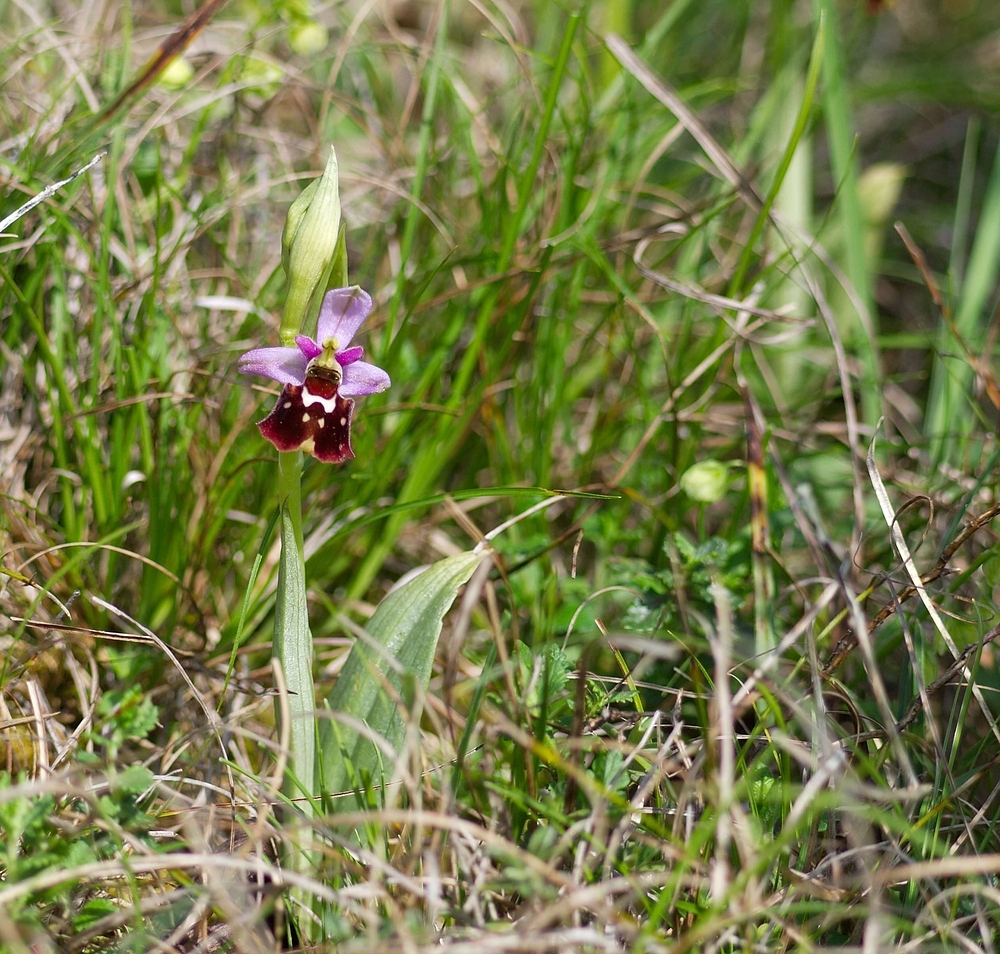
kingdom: Plantae
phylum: Tracheophyta
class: Liliopsida
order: Asparagales
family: Orchidaceae
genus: Ophrys
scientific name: Ophrys holosericea
